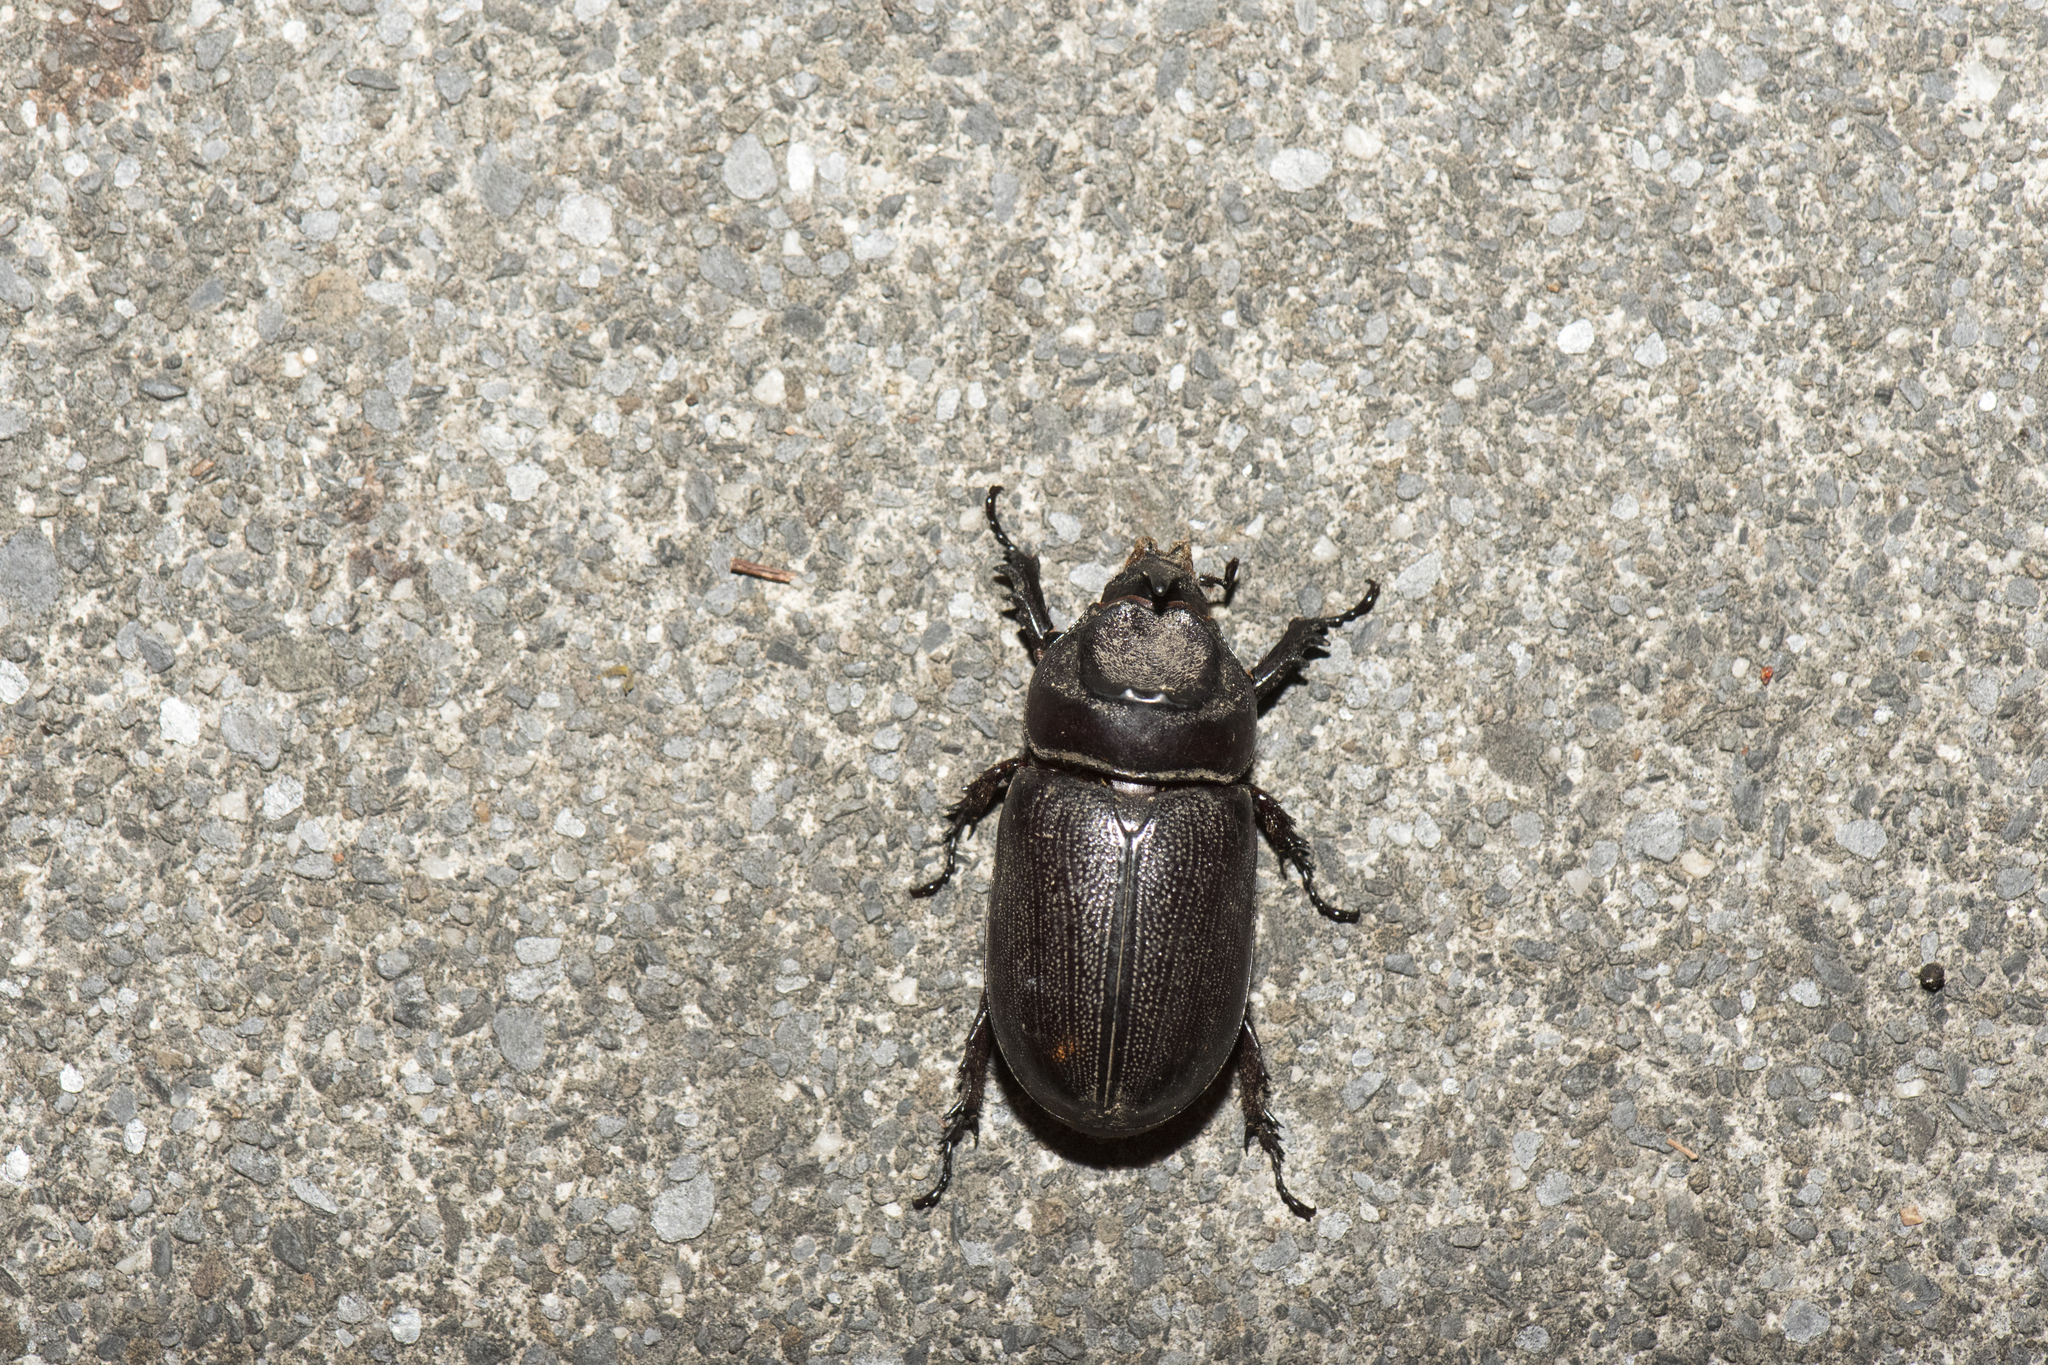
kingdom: Animalia
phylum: Arthropoda
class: Insecta
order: Coleoptera
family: Scarabaeidae
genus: Oryctes
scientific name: Oryctes rhinoceros
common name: Coconut rhinoceros beetle
